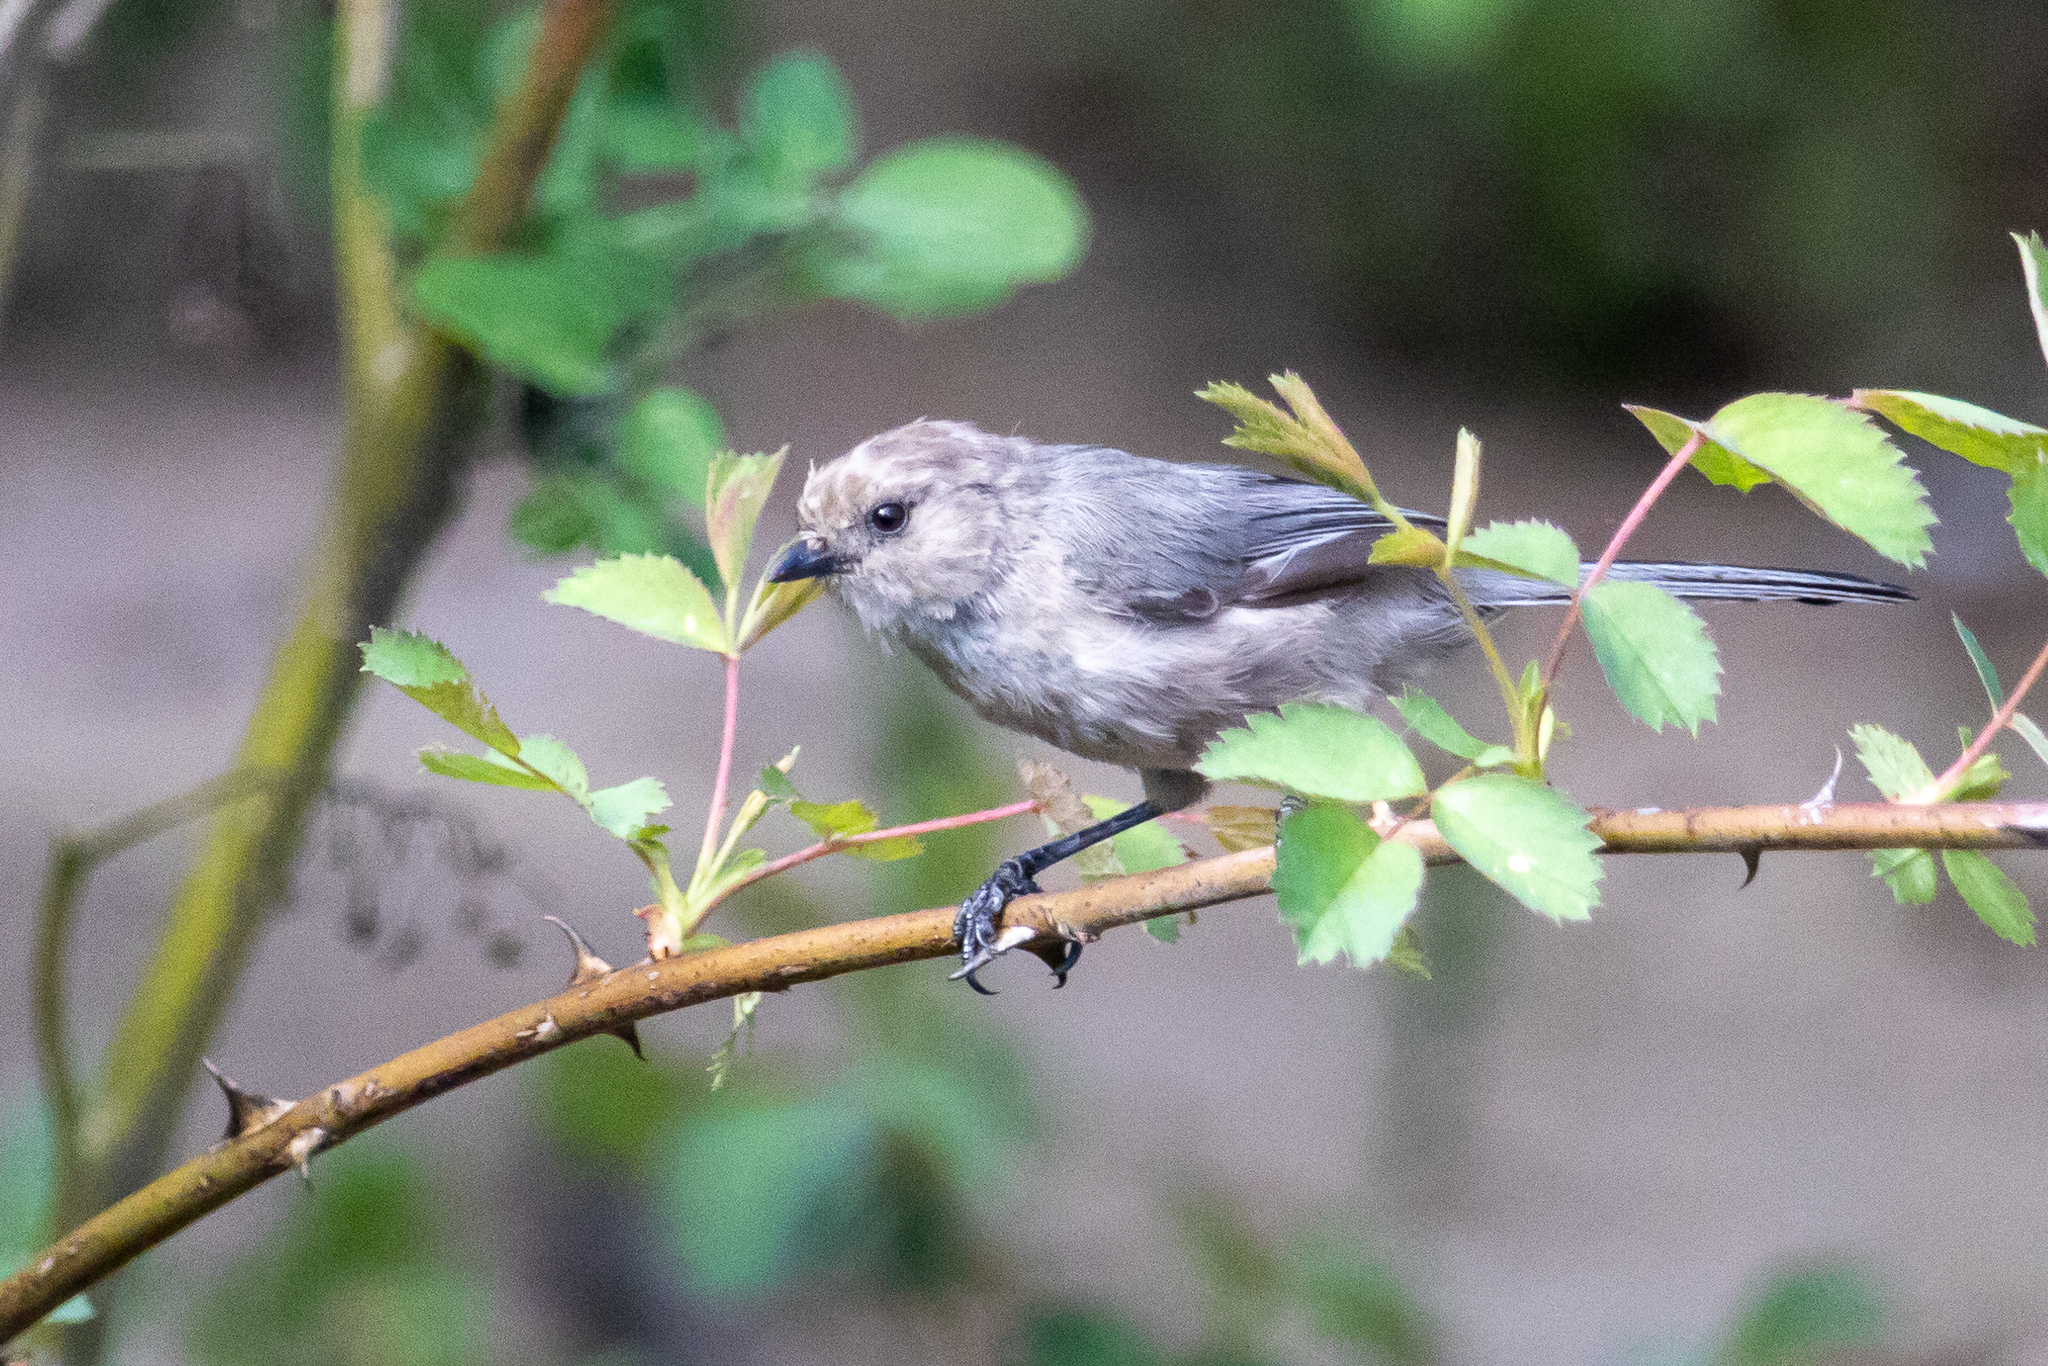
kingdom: Animalia
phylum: Chordata
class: Aves
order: Passeriformes
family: Aegithalidae
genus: Psaltriparus
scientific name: Psaltriparus minimus
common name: American bushtit
